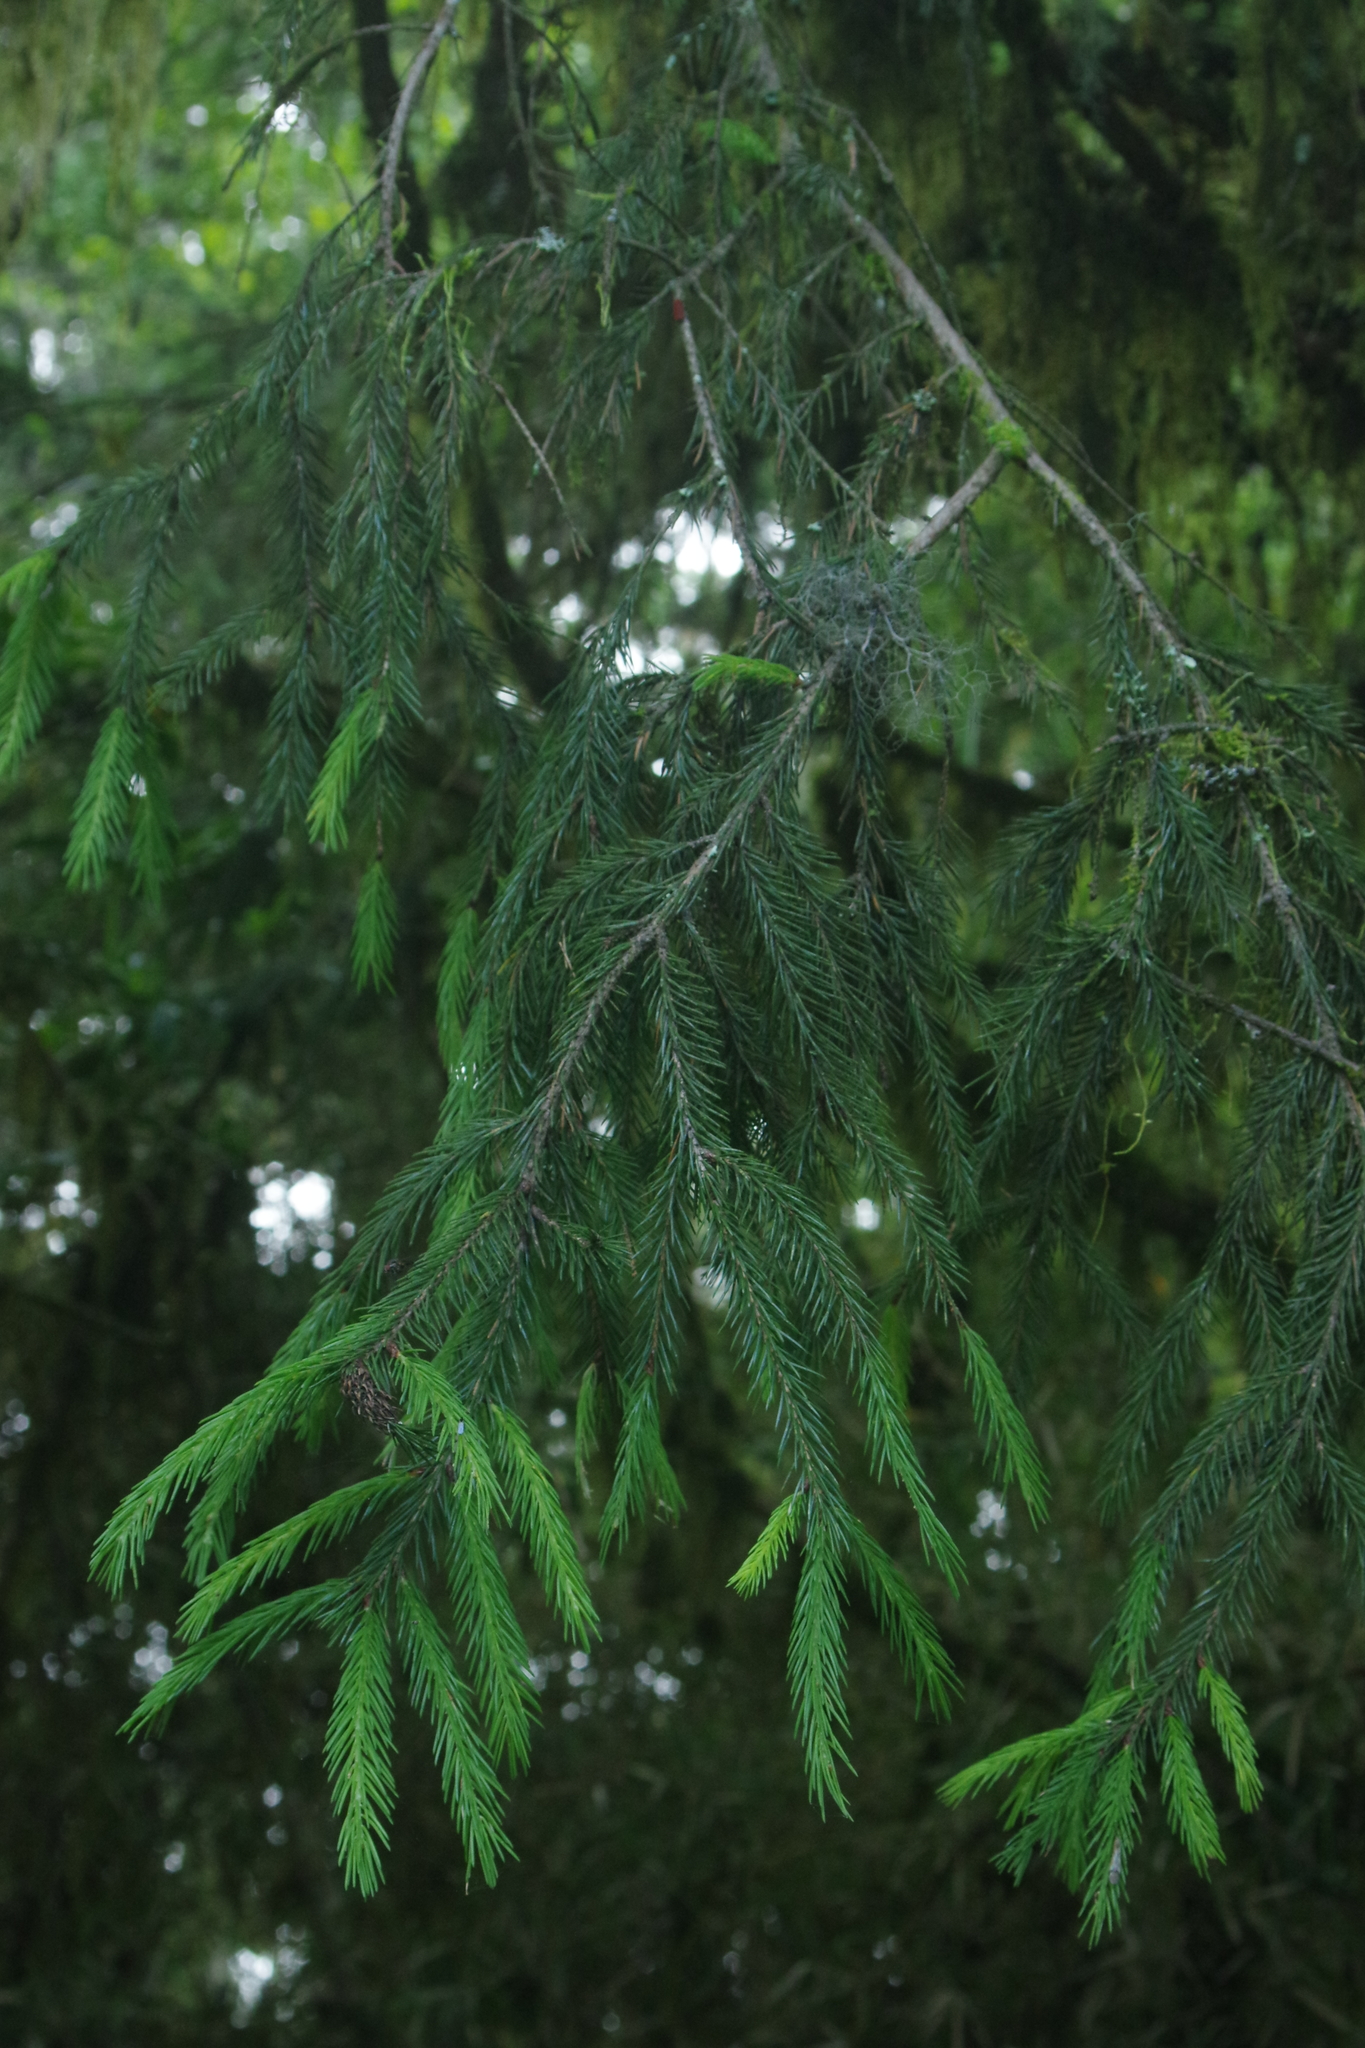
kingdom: Plantae
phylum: Tracheophyta
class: Pinopsida
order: Pinales
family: Pinaceae
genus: Picea
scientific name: Picea morrisonicola
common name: Mount morrison spruce
